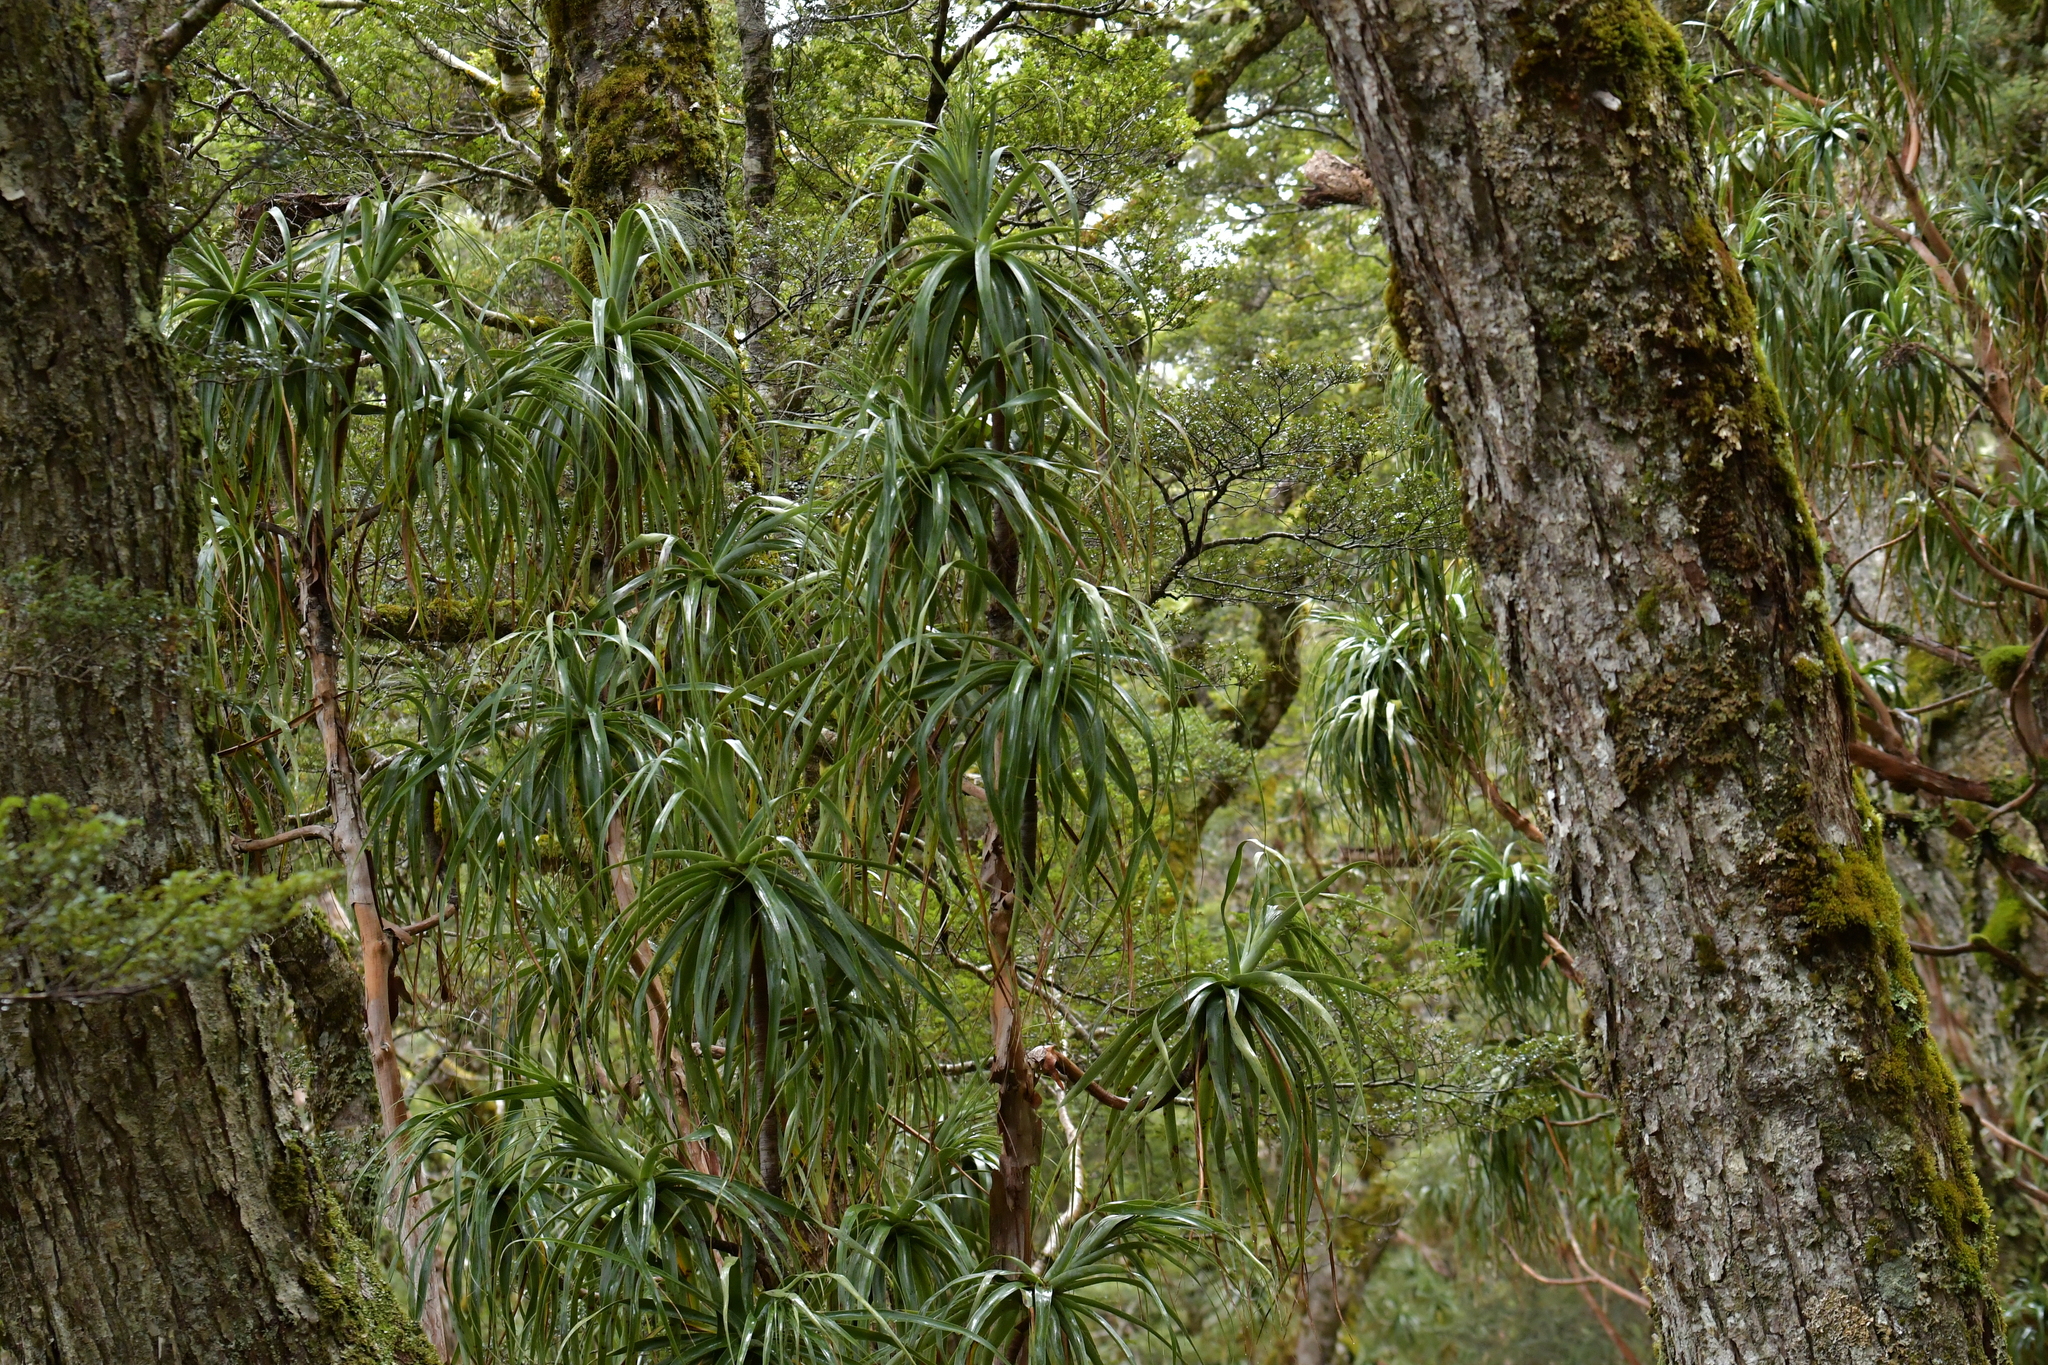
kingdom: Plantae
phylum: Tracheophyta
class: Magnoliopsida
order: Ericales
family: Ericaceae
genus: Dracophyllum
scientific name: Dracophyllum traversii
